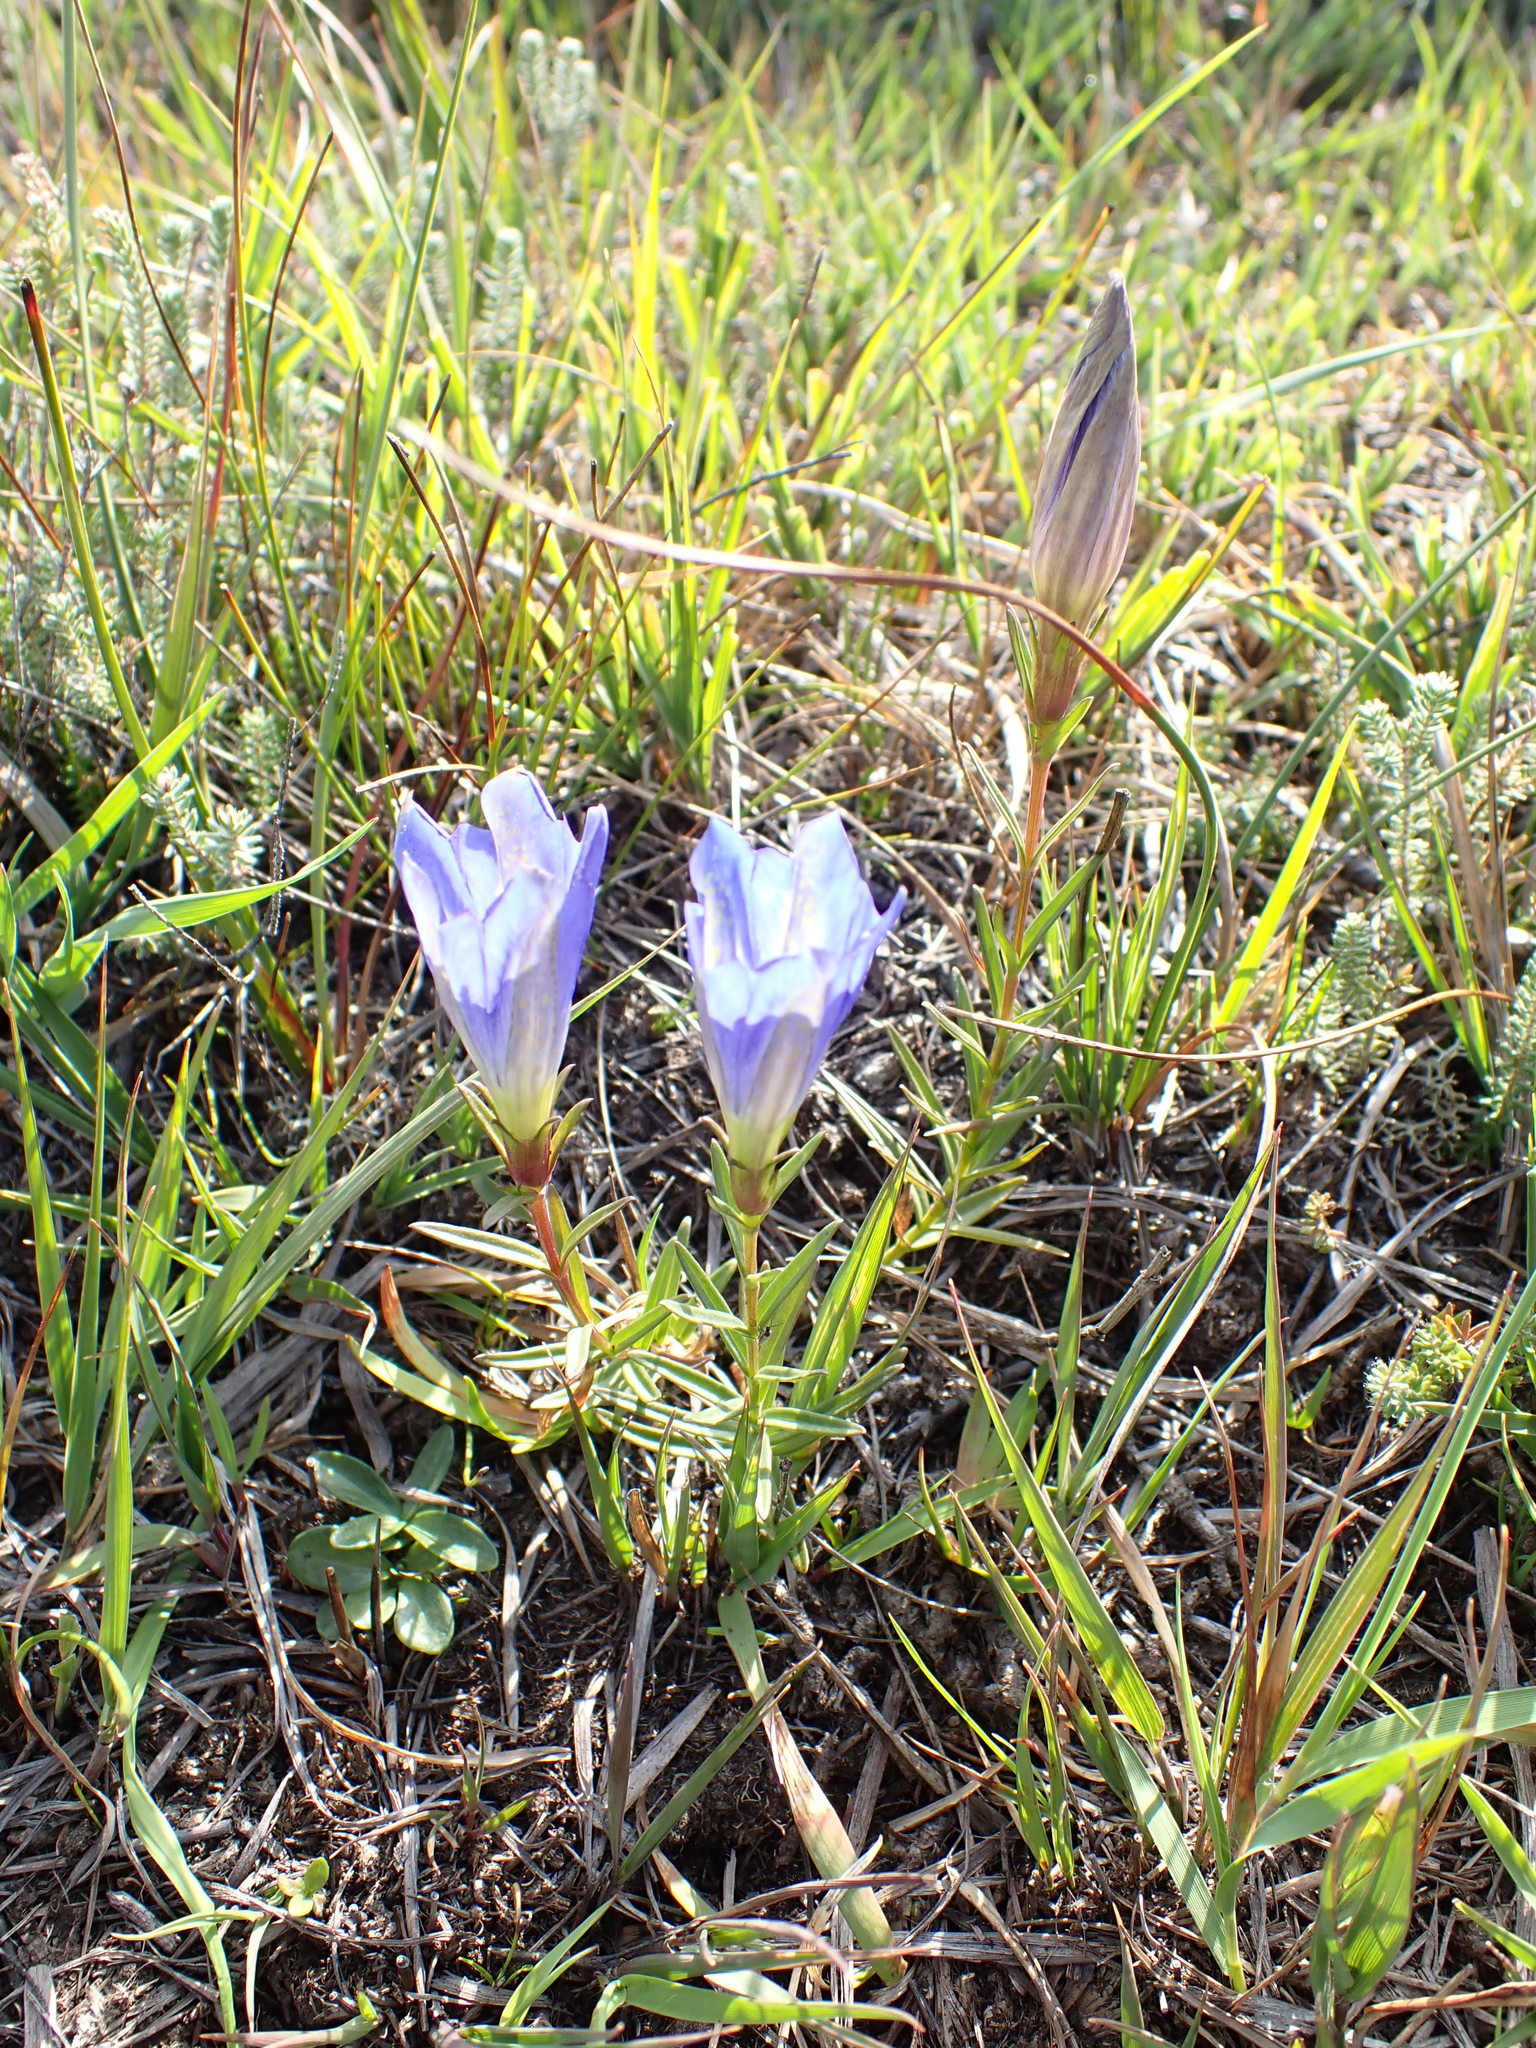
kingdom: Plantae
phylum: Tracheophyta
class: Magnoliopsida
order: Gentianales
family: Gentianaceae
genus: Gentiana
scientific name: Gentiana pneumonanthe
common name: Marsh gentian
